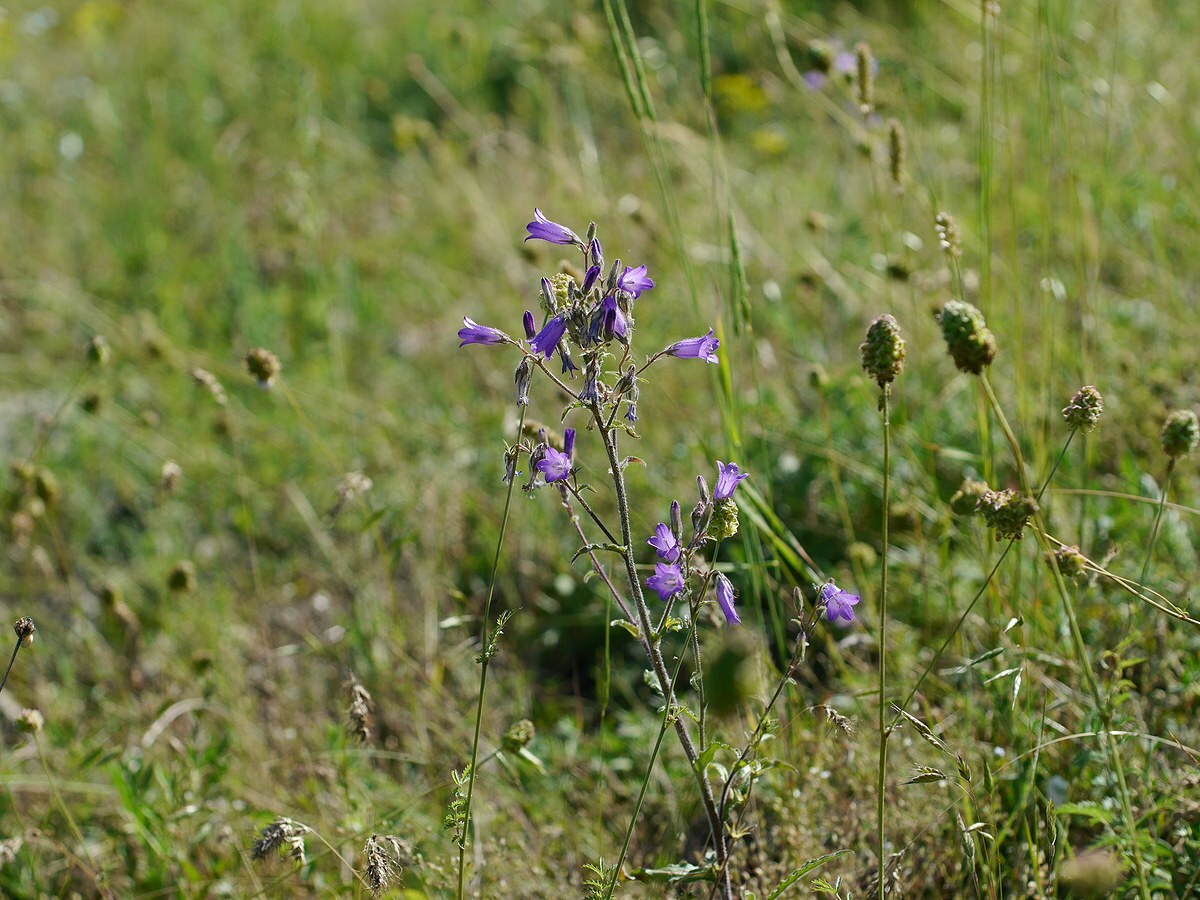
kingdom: Plantae
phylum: Tracheophyta
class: Magnoliopsida
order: Asterales
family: Campanulaceae
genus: Campanula
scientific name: Campanula sibirica
